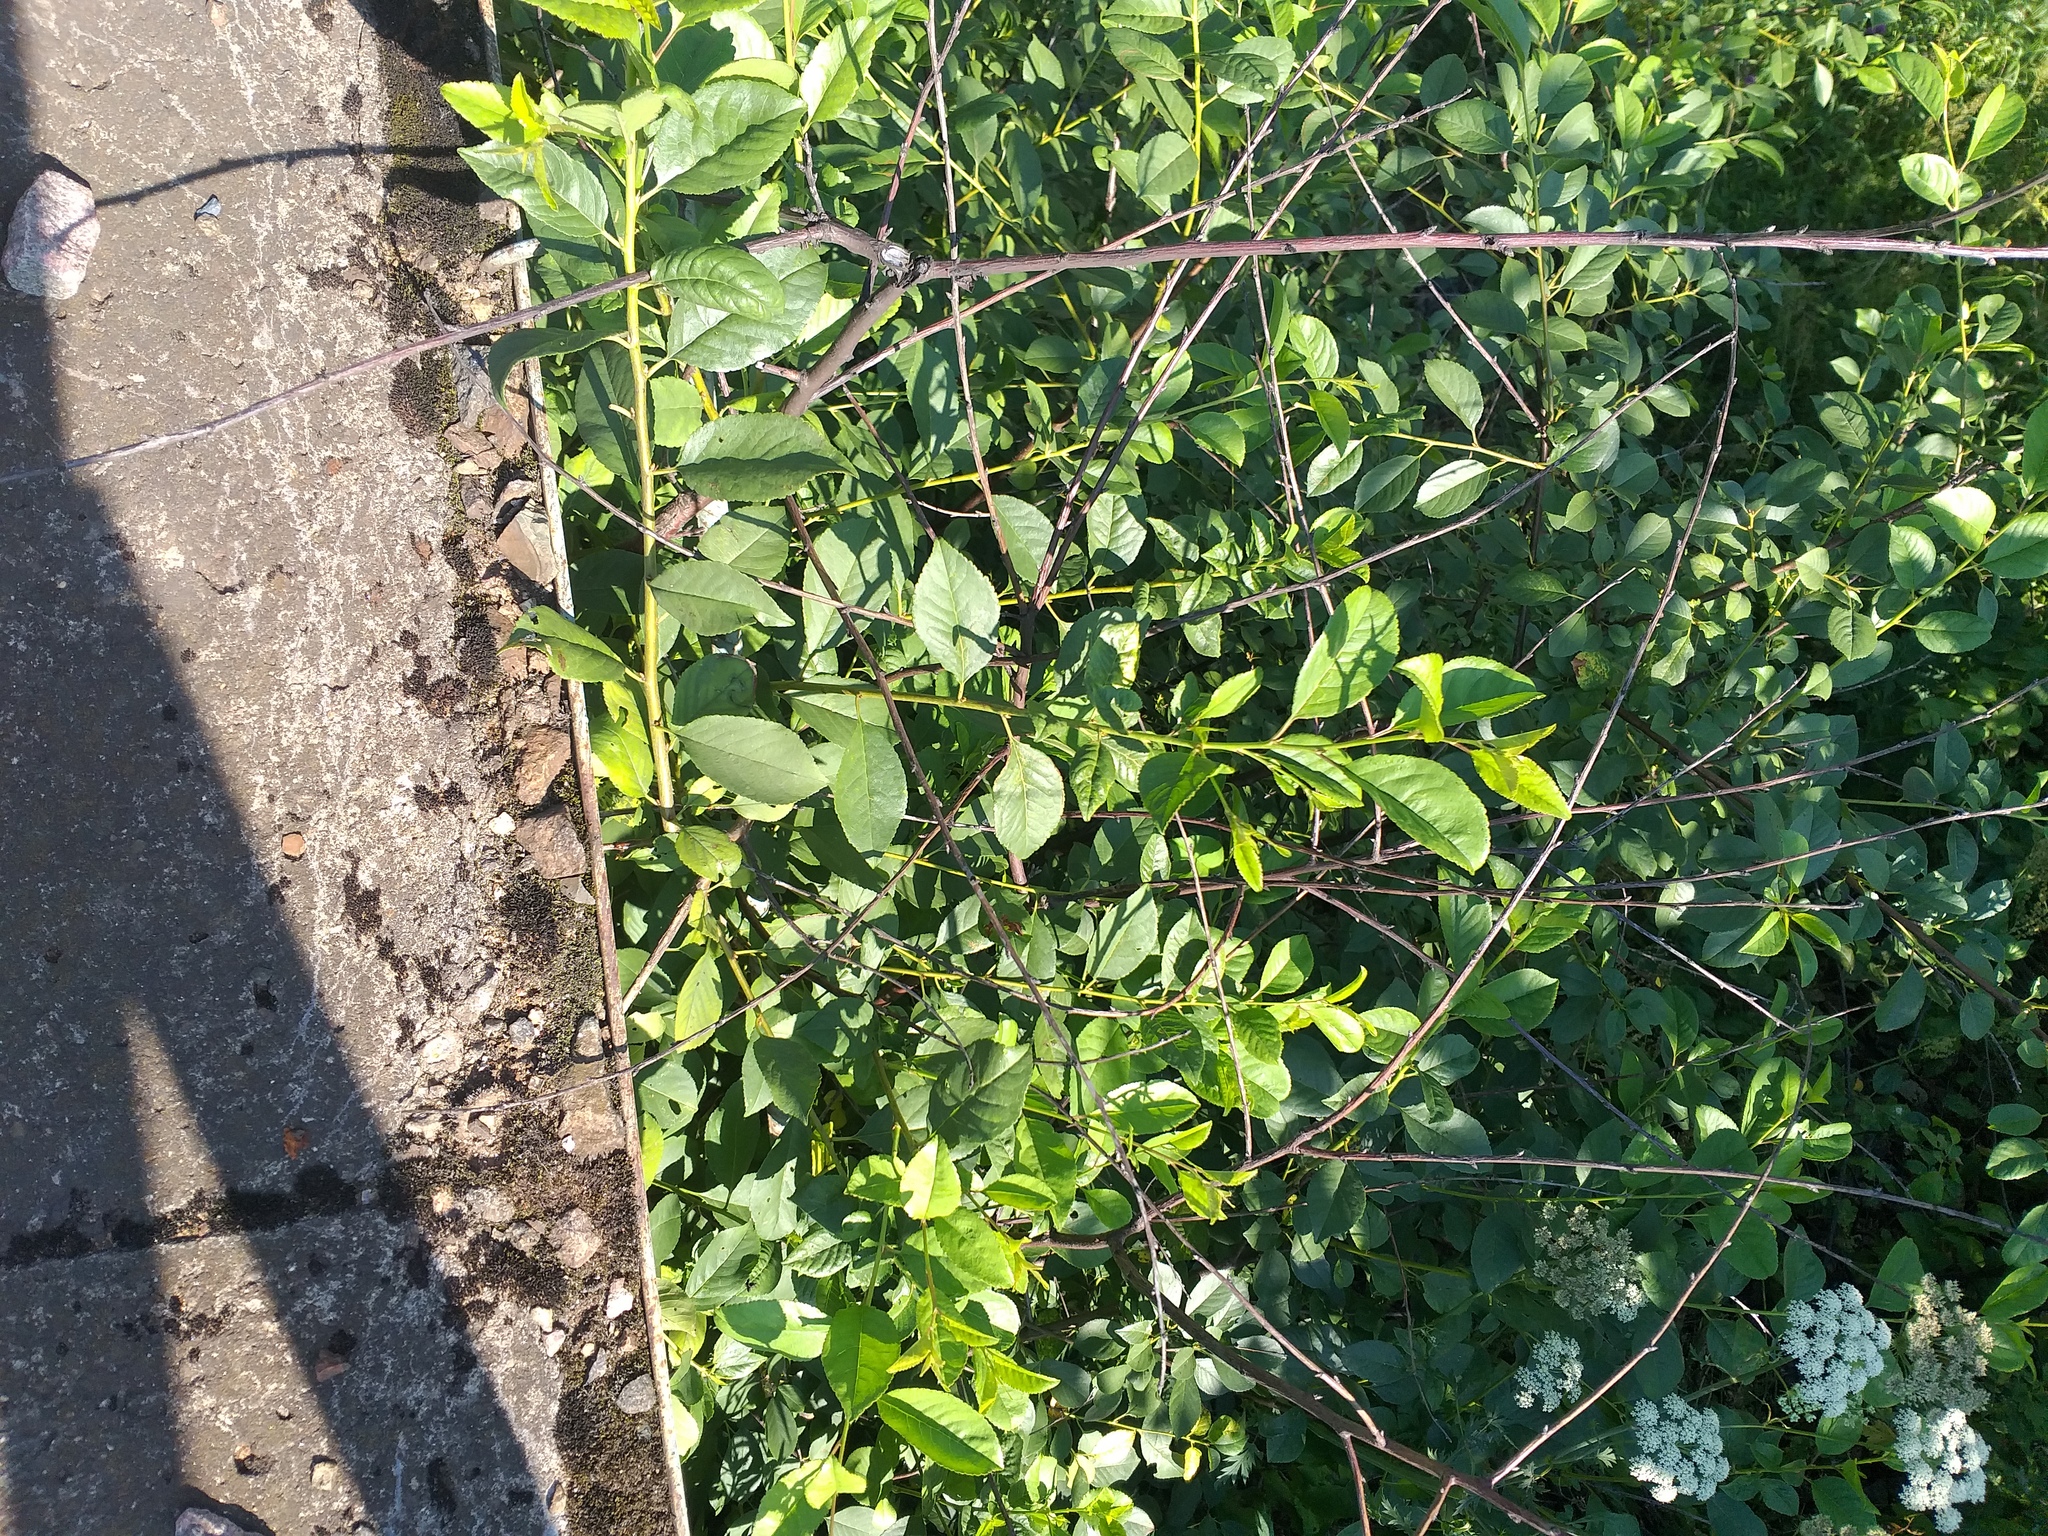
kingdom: Plantae
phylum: Tracheophyta
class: Magnoliopsida
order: Rosales
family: Rosaceae
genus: Prunus
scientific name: Prunus cerasus
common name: Morello cherry
